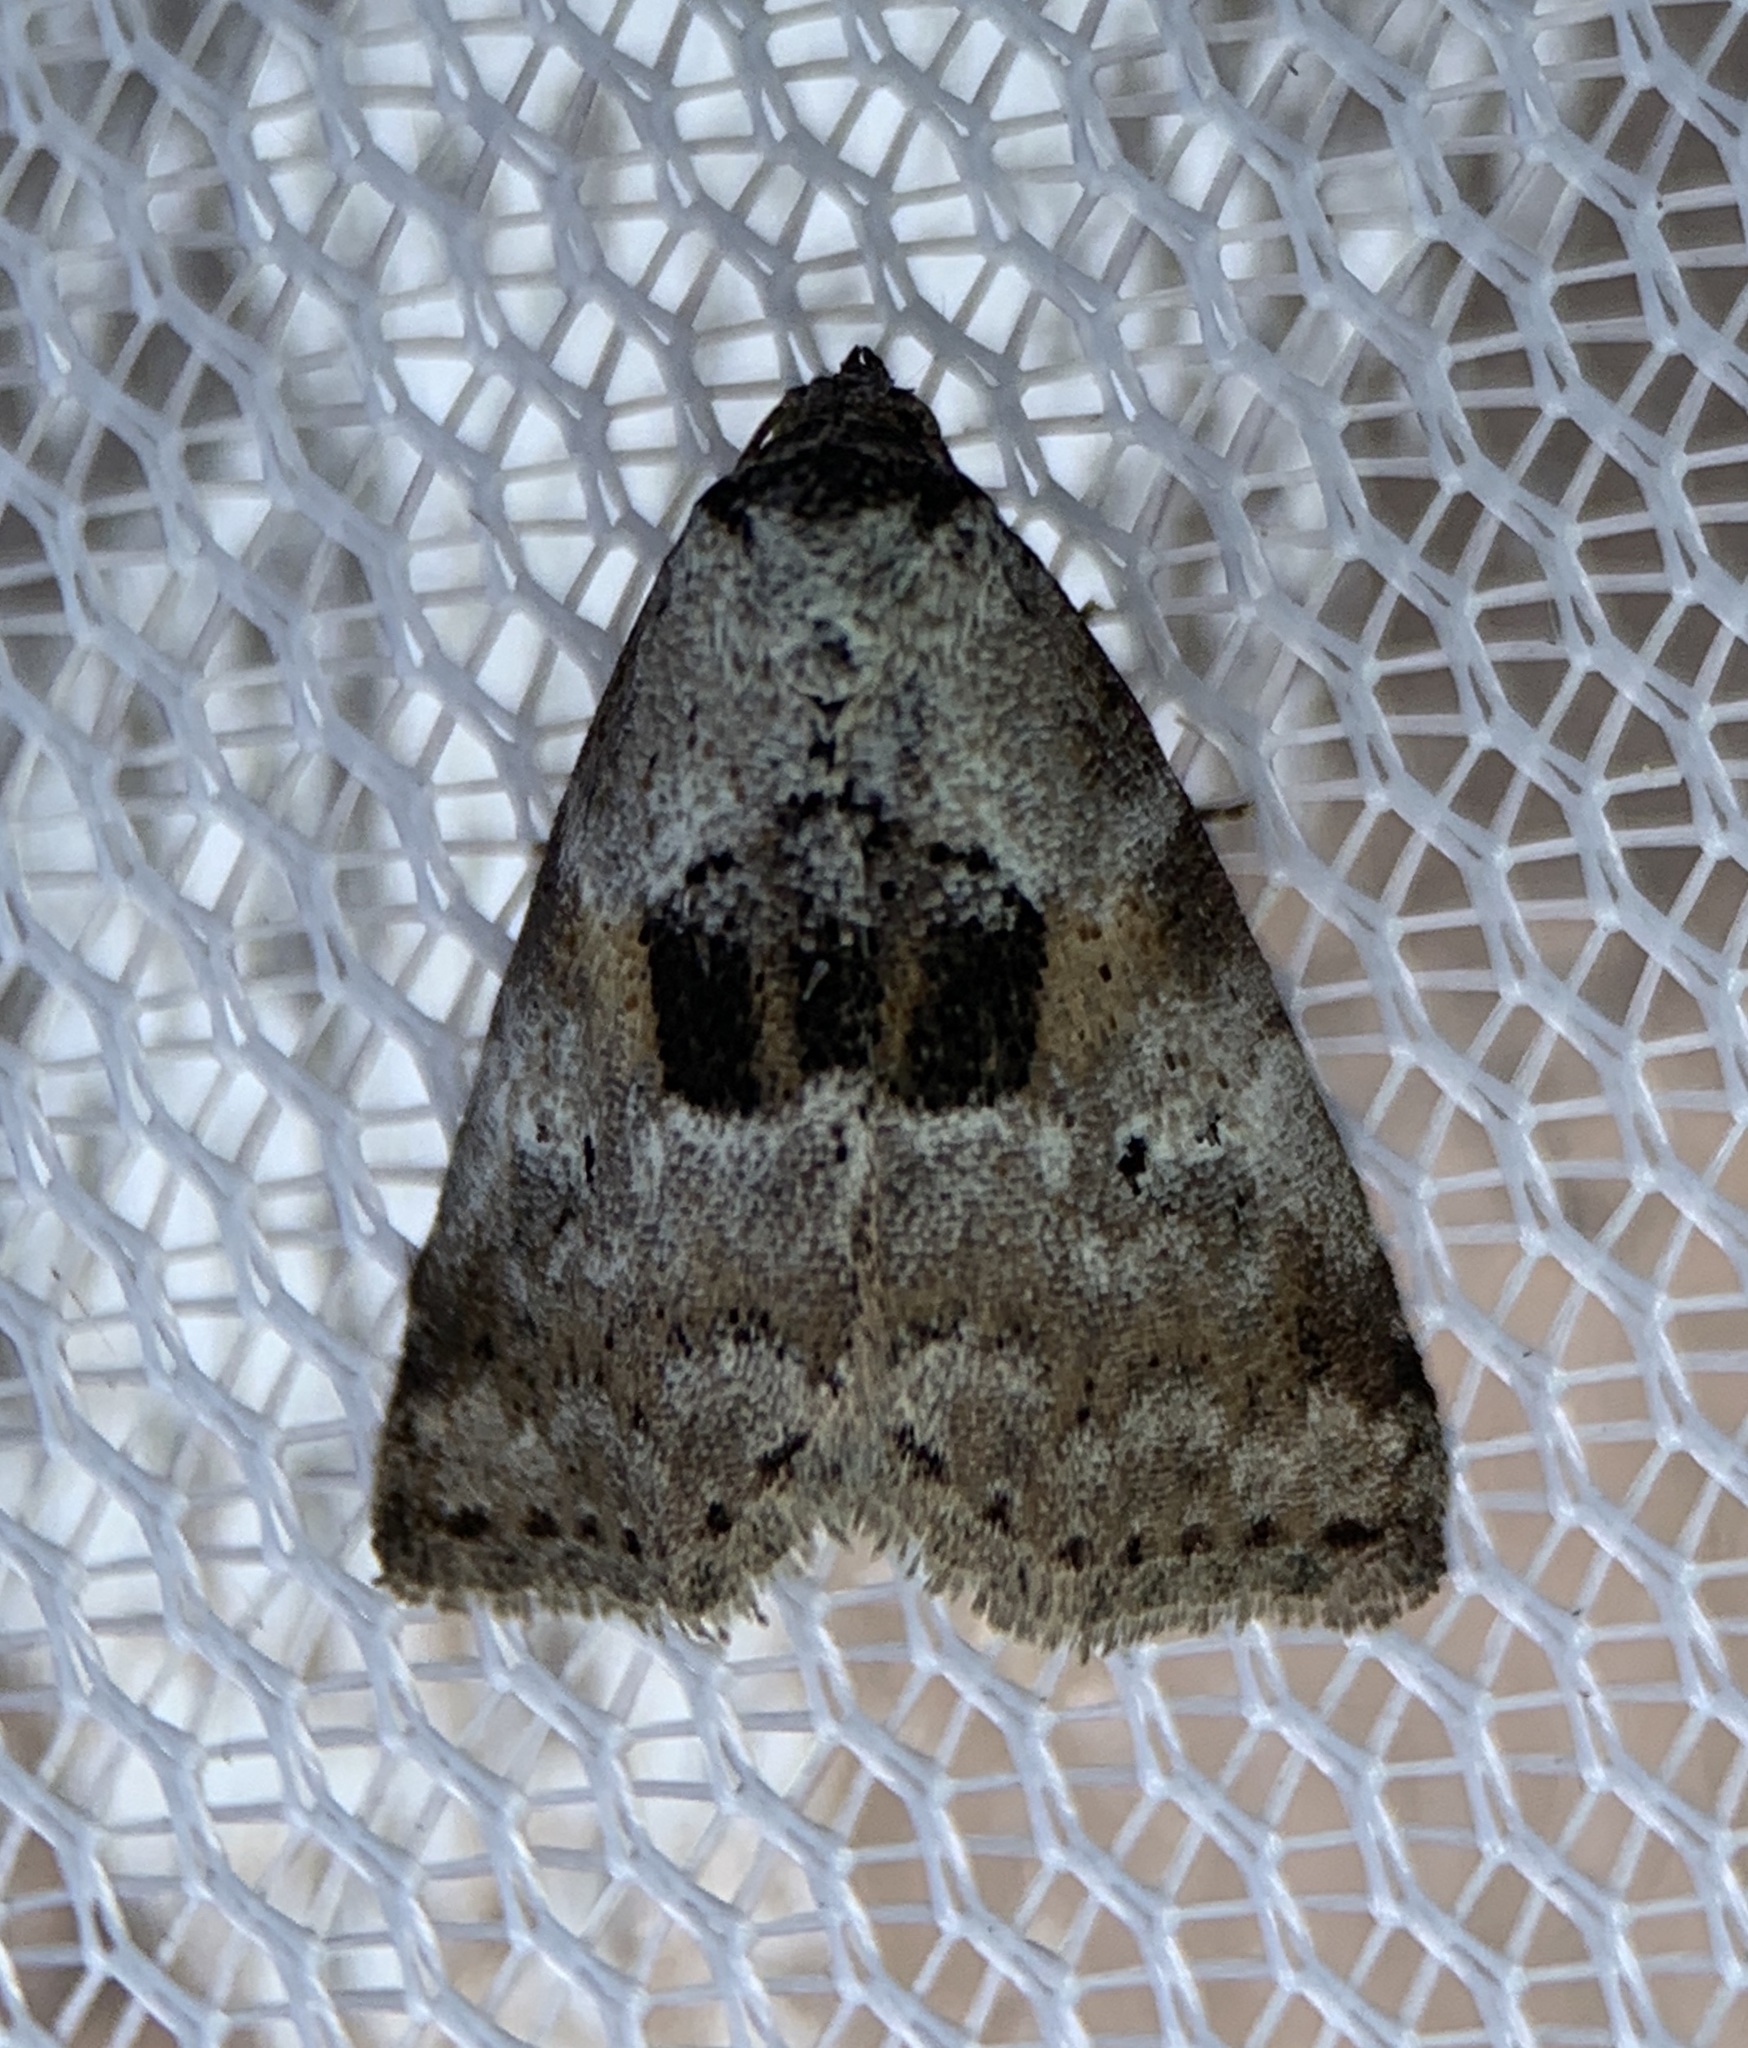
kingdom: Animalia
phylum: Arthropoda
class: Insecta
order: Lepidoptera
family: Erebidae
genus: Hyperstrotia
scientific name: Hyperstrotia secta
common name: Black-patched graylet
